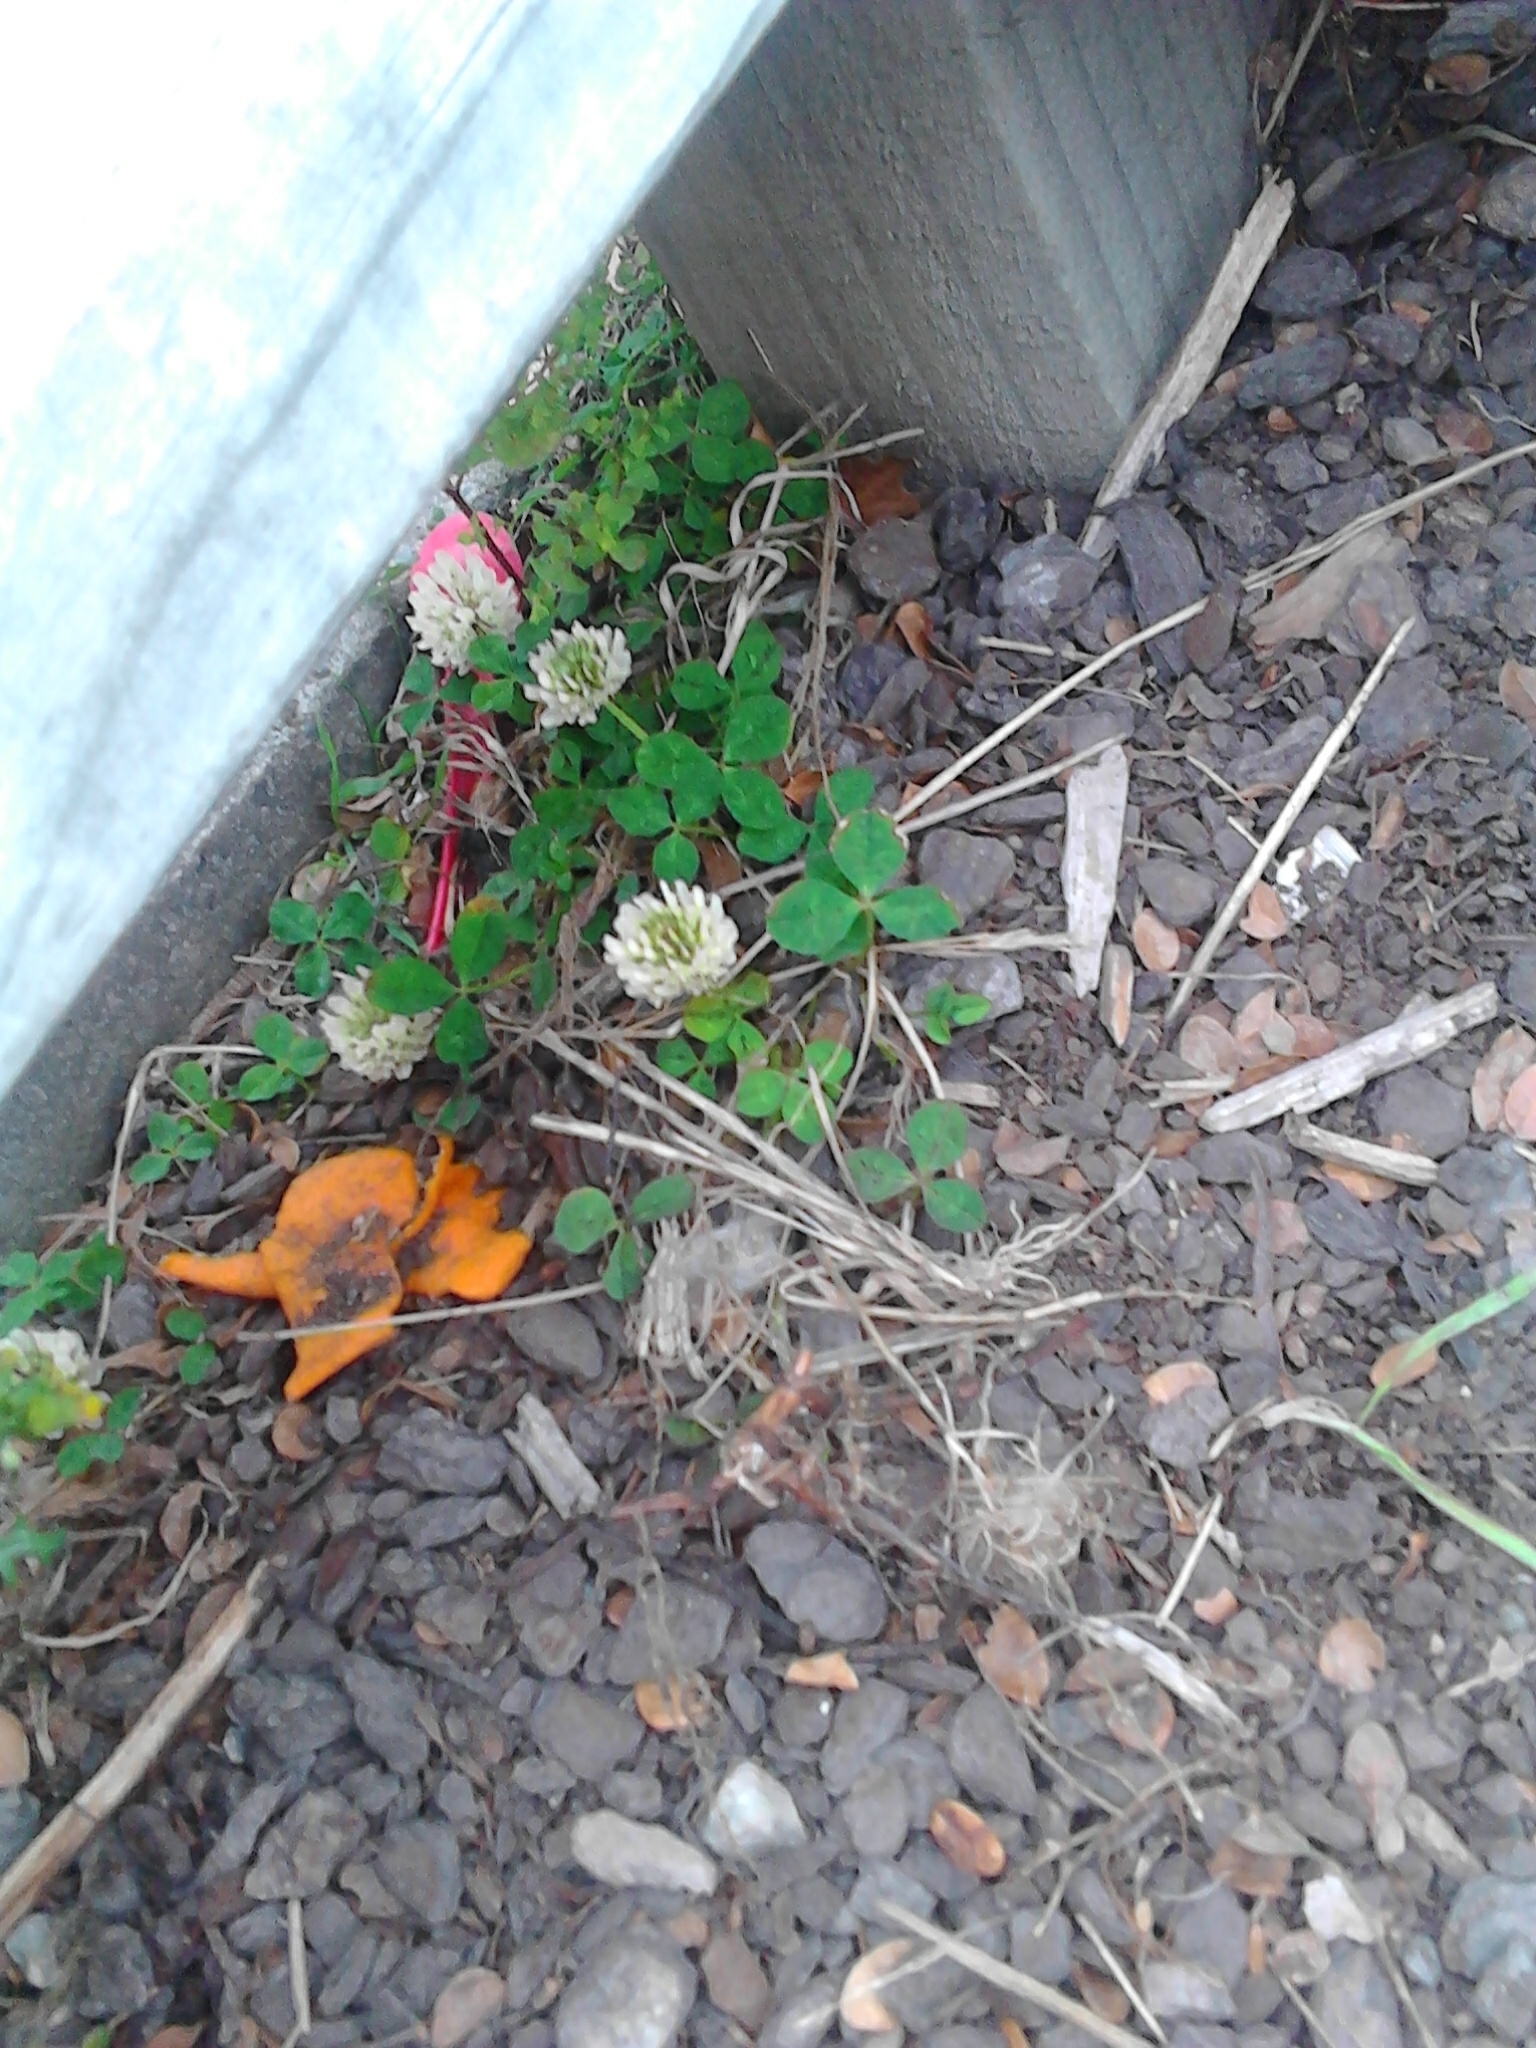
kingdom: Plantae
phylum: Tracheophyta
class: Magnoliopsida
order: Fabales
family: Fabaceae
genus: Trifolium
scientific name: Trifolium repens
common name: White clover
